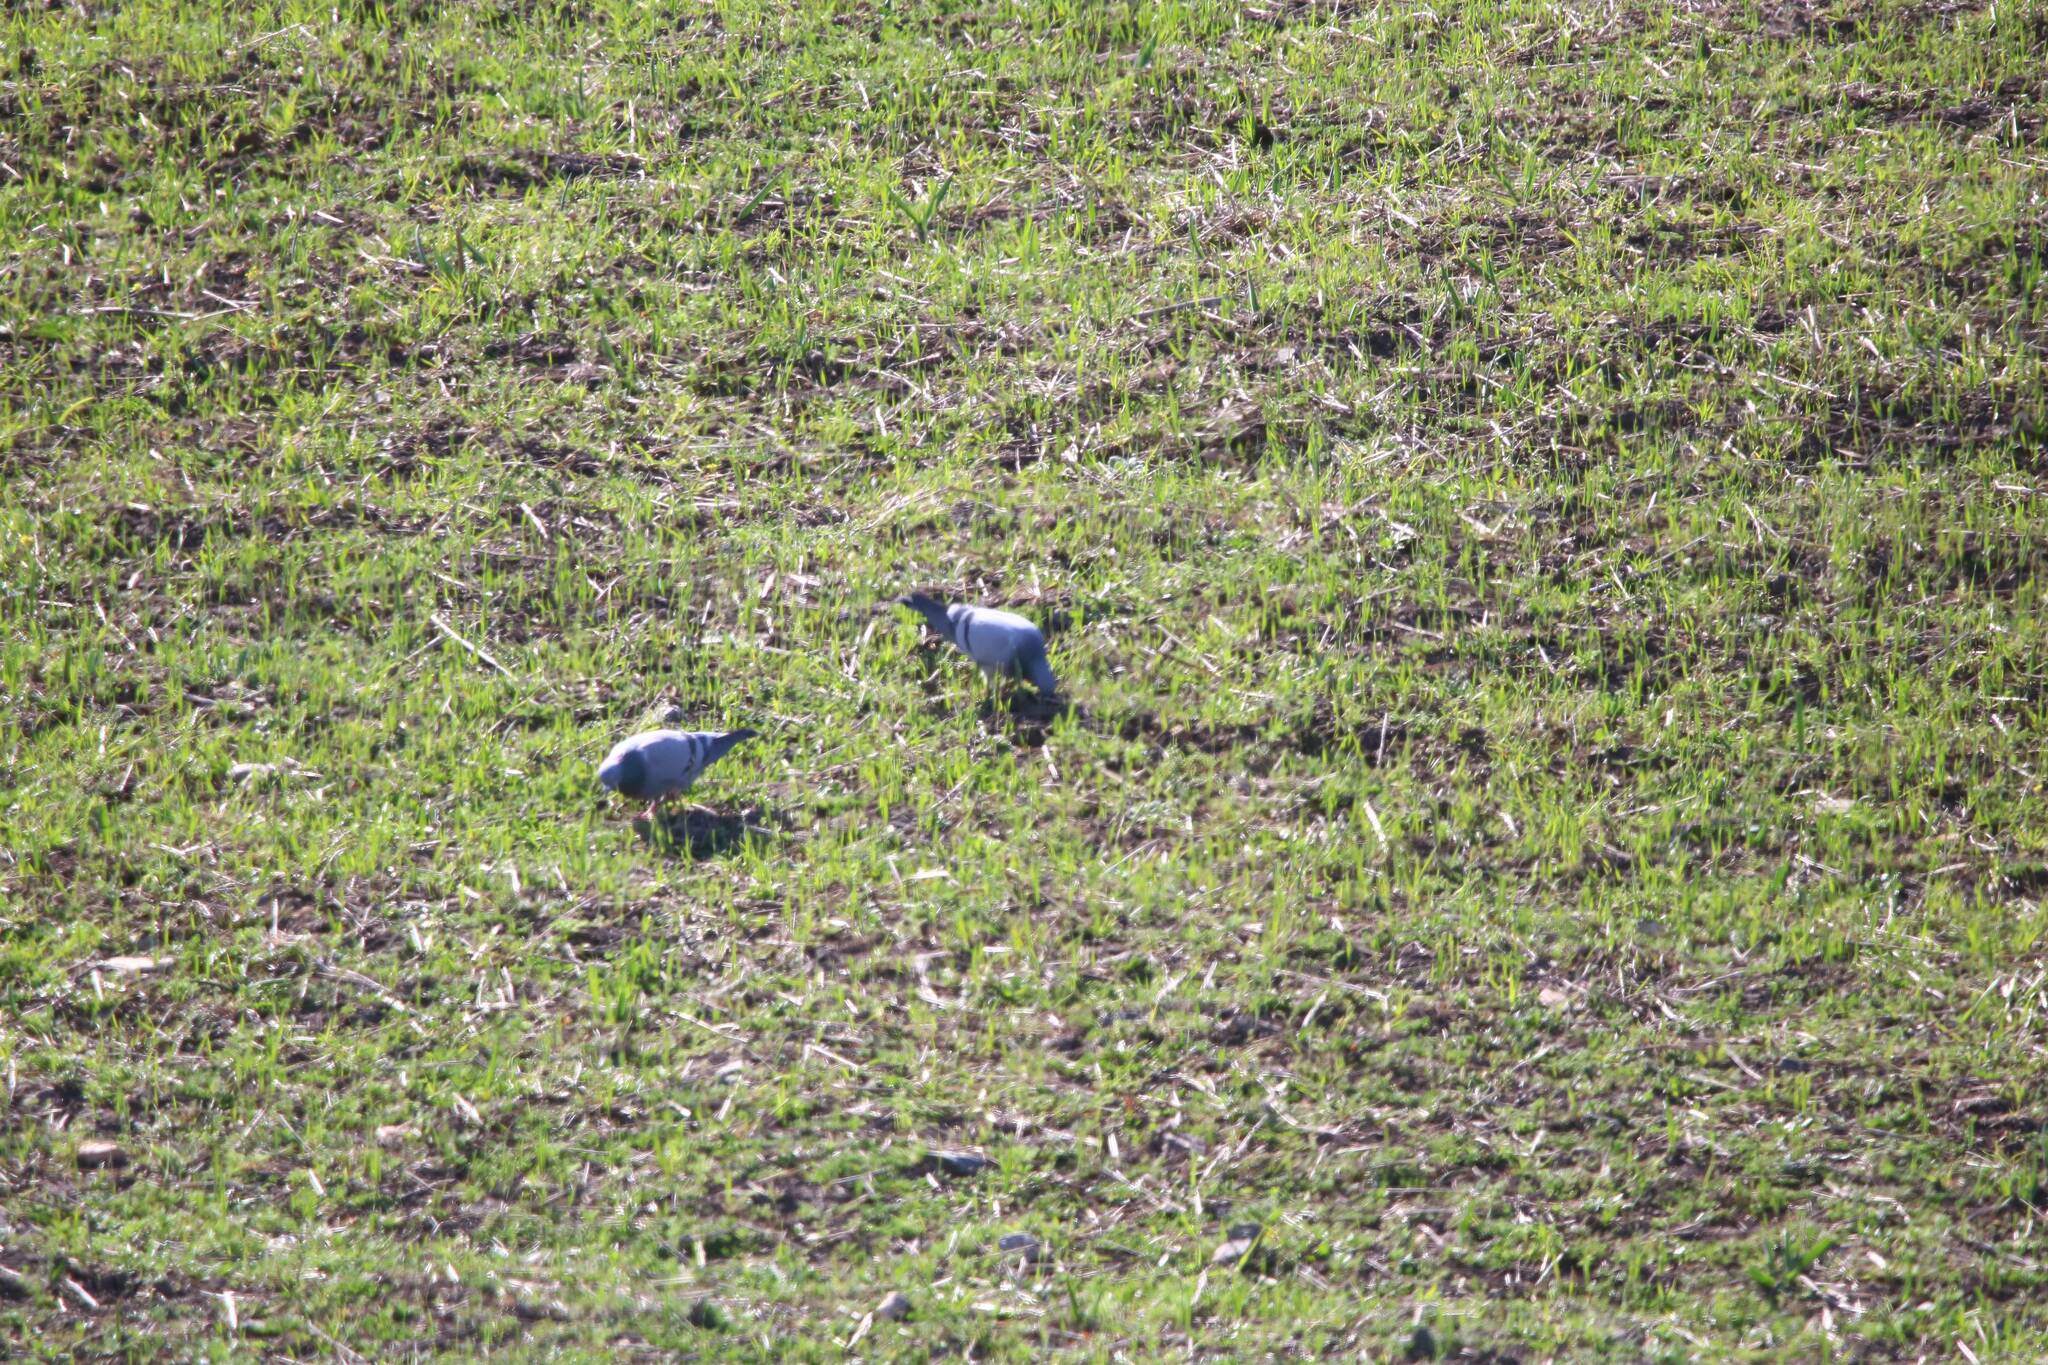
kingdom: Animalia
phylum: Chordata
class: Aves
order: Columbiformes
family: Columbidae
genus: Columba
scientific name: Columba livia
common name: Rock pigeon
